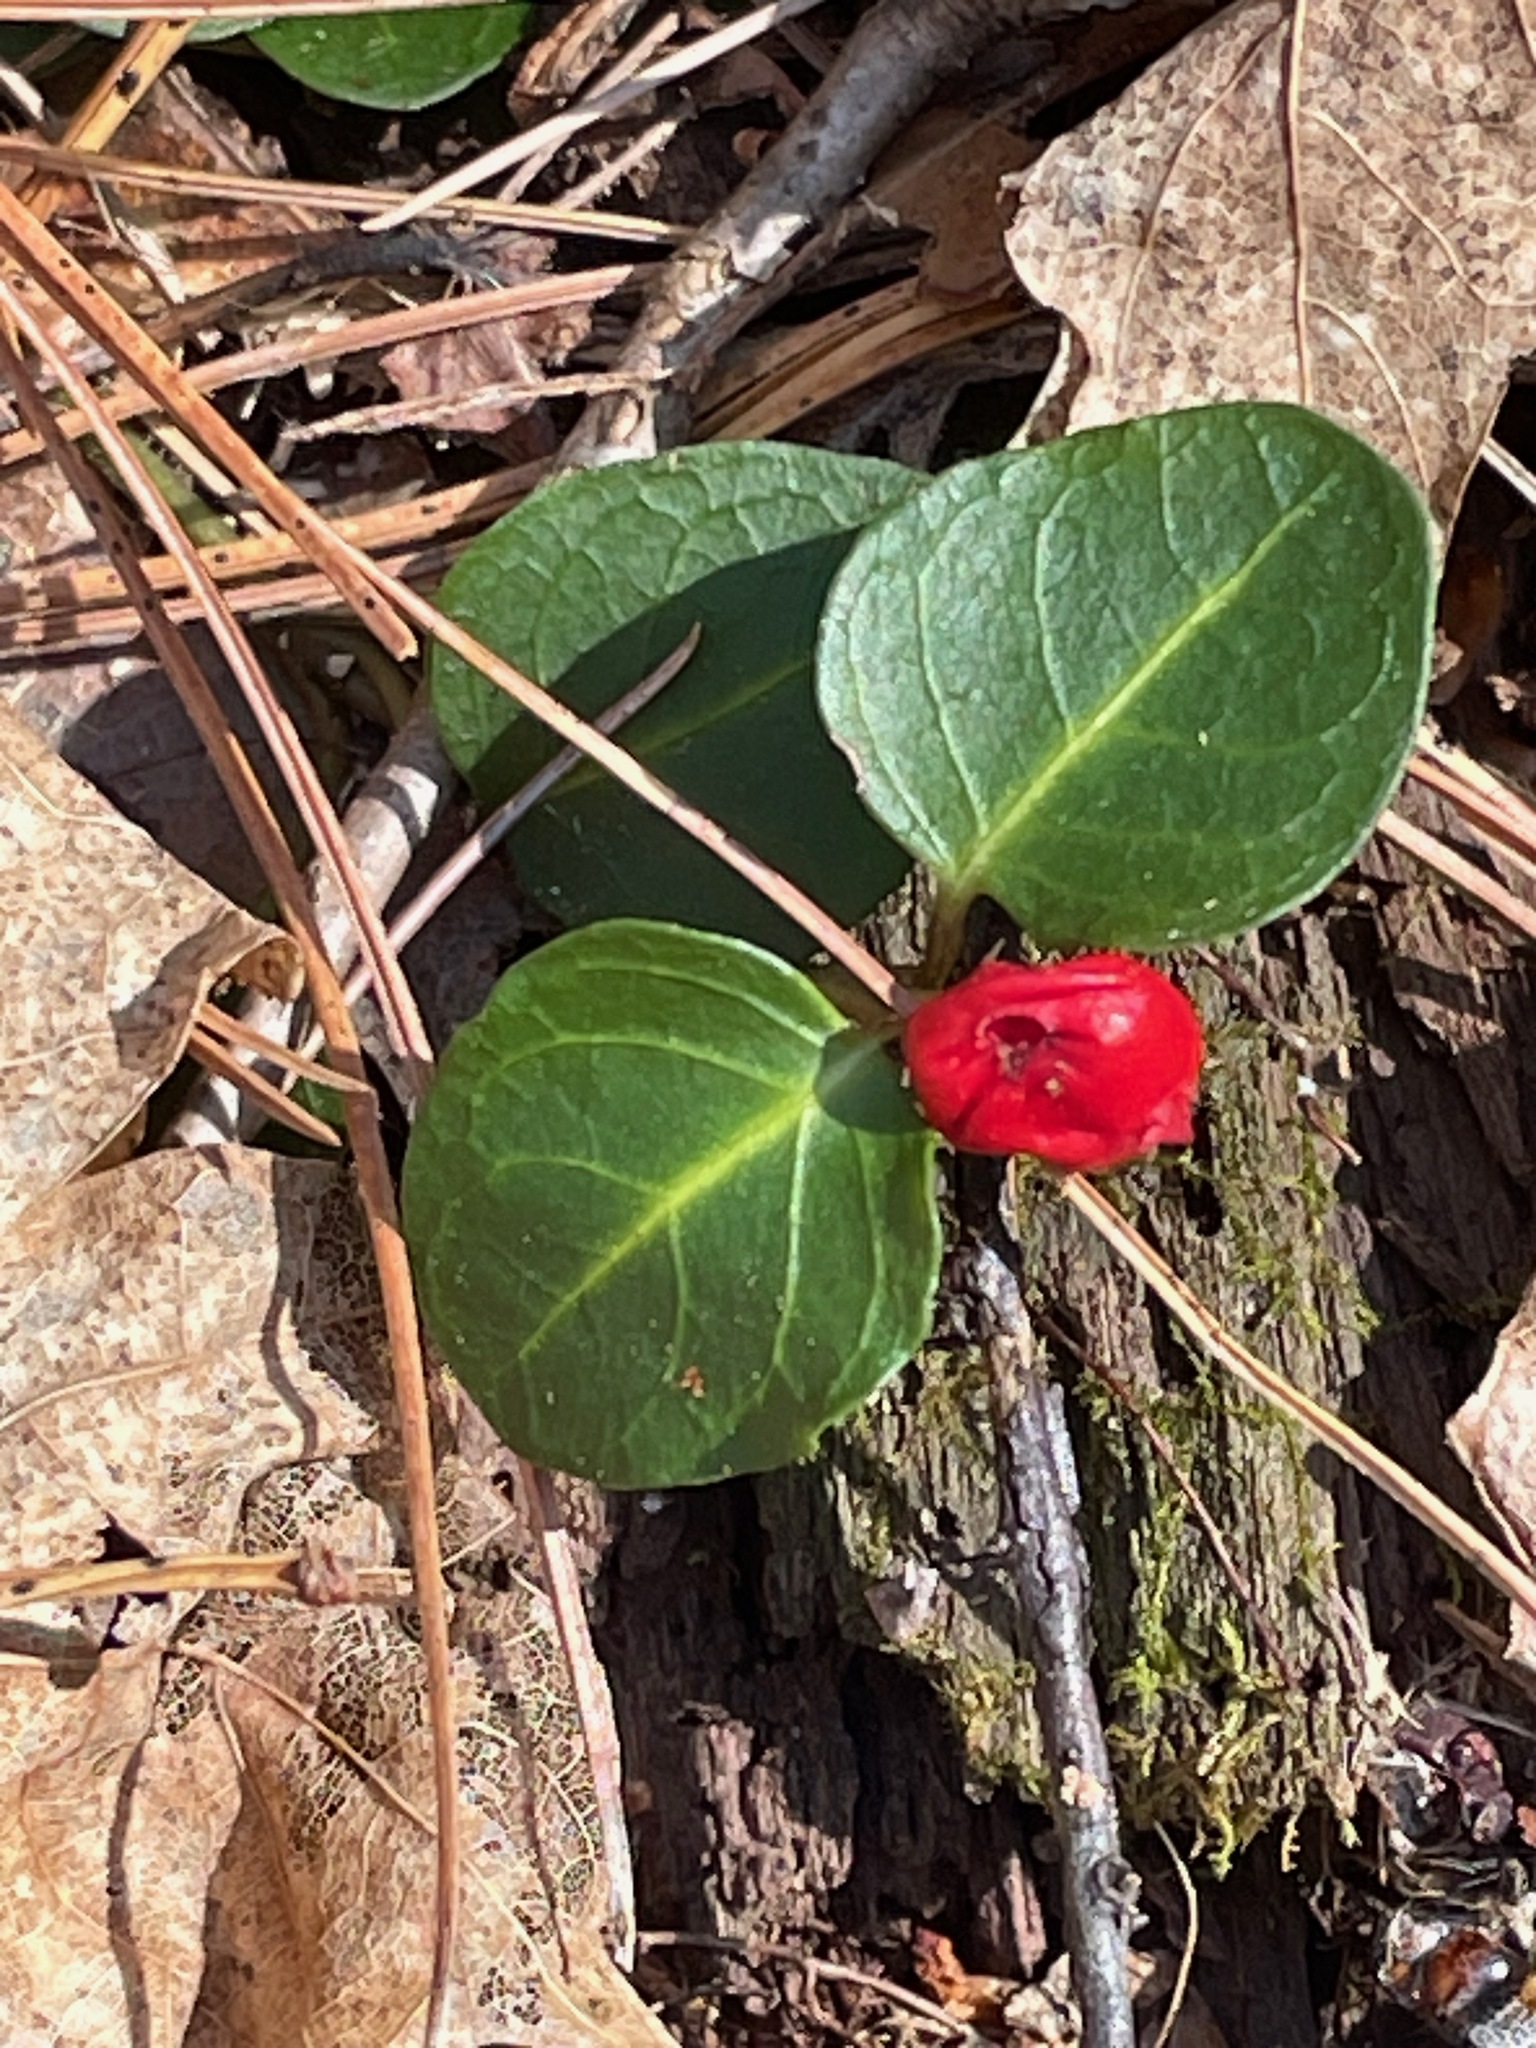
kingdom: Plantae
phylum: Tracheophyta
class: Magnoliopsida
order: Gentianales
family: Rubiaceae
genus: Mitchella
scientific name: Mitchella repens
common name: Partridge-berry
